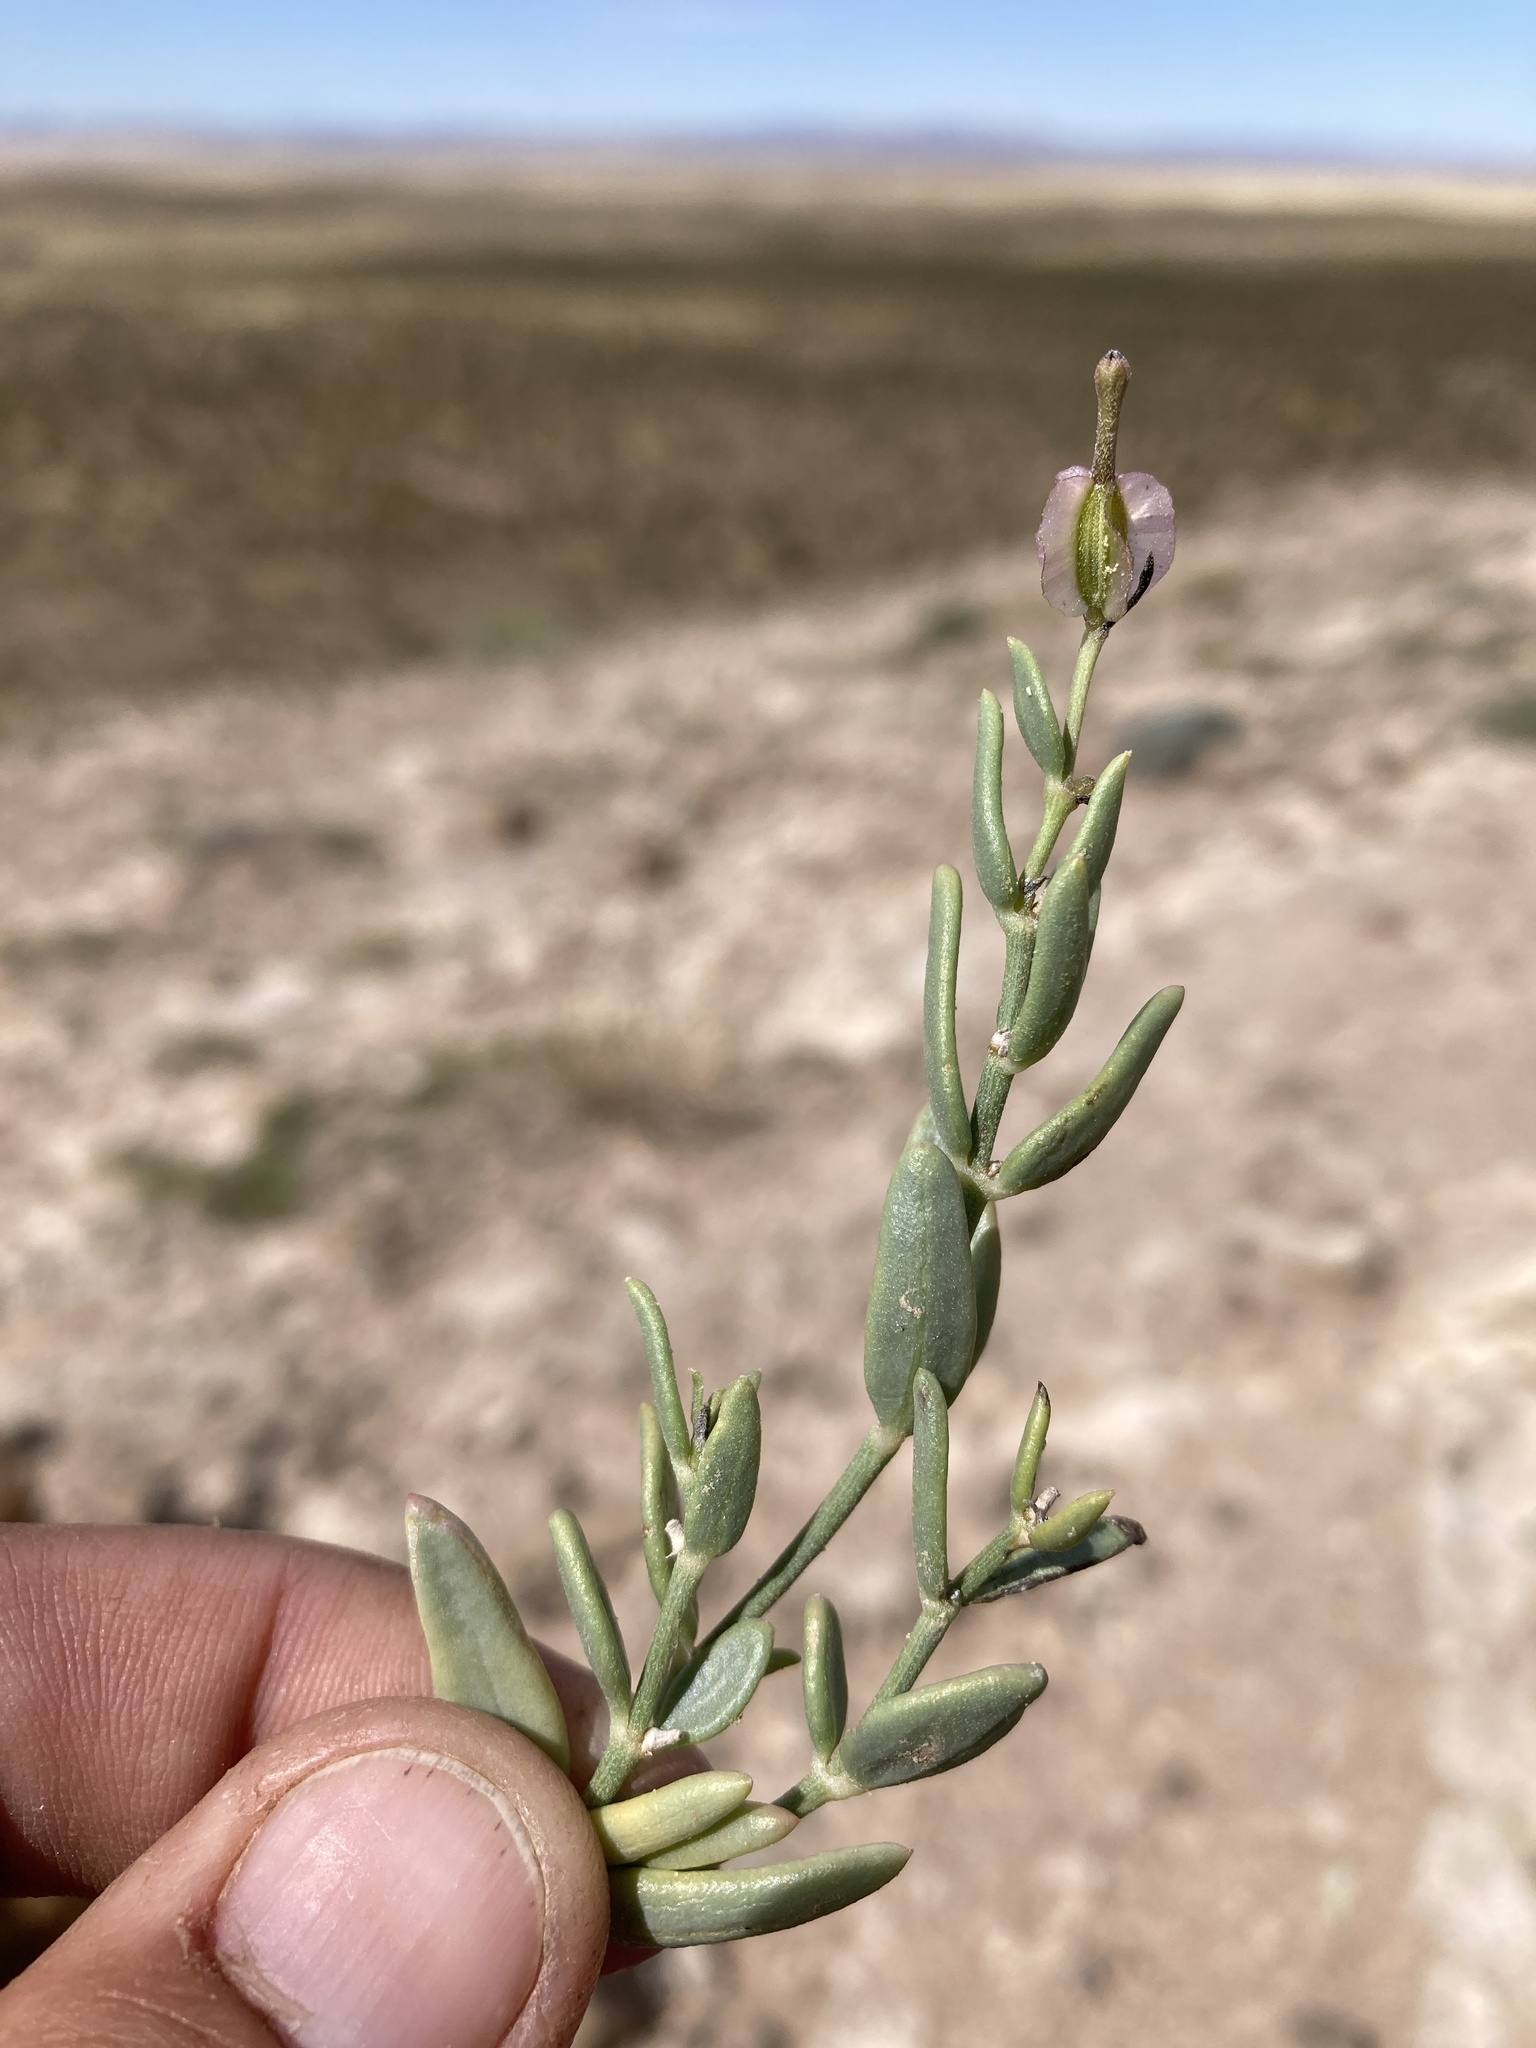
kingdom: Plantae
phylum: Tracheophyta
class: Magnoliopsida
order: Caryophyllales
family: Nyctaginaceae
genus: Acleisanthes
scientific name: Acleisanthes lanceolata
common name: Gypsum moonpod
